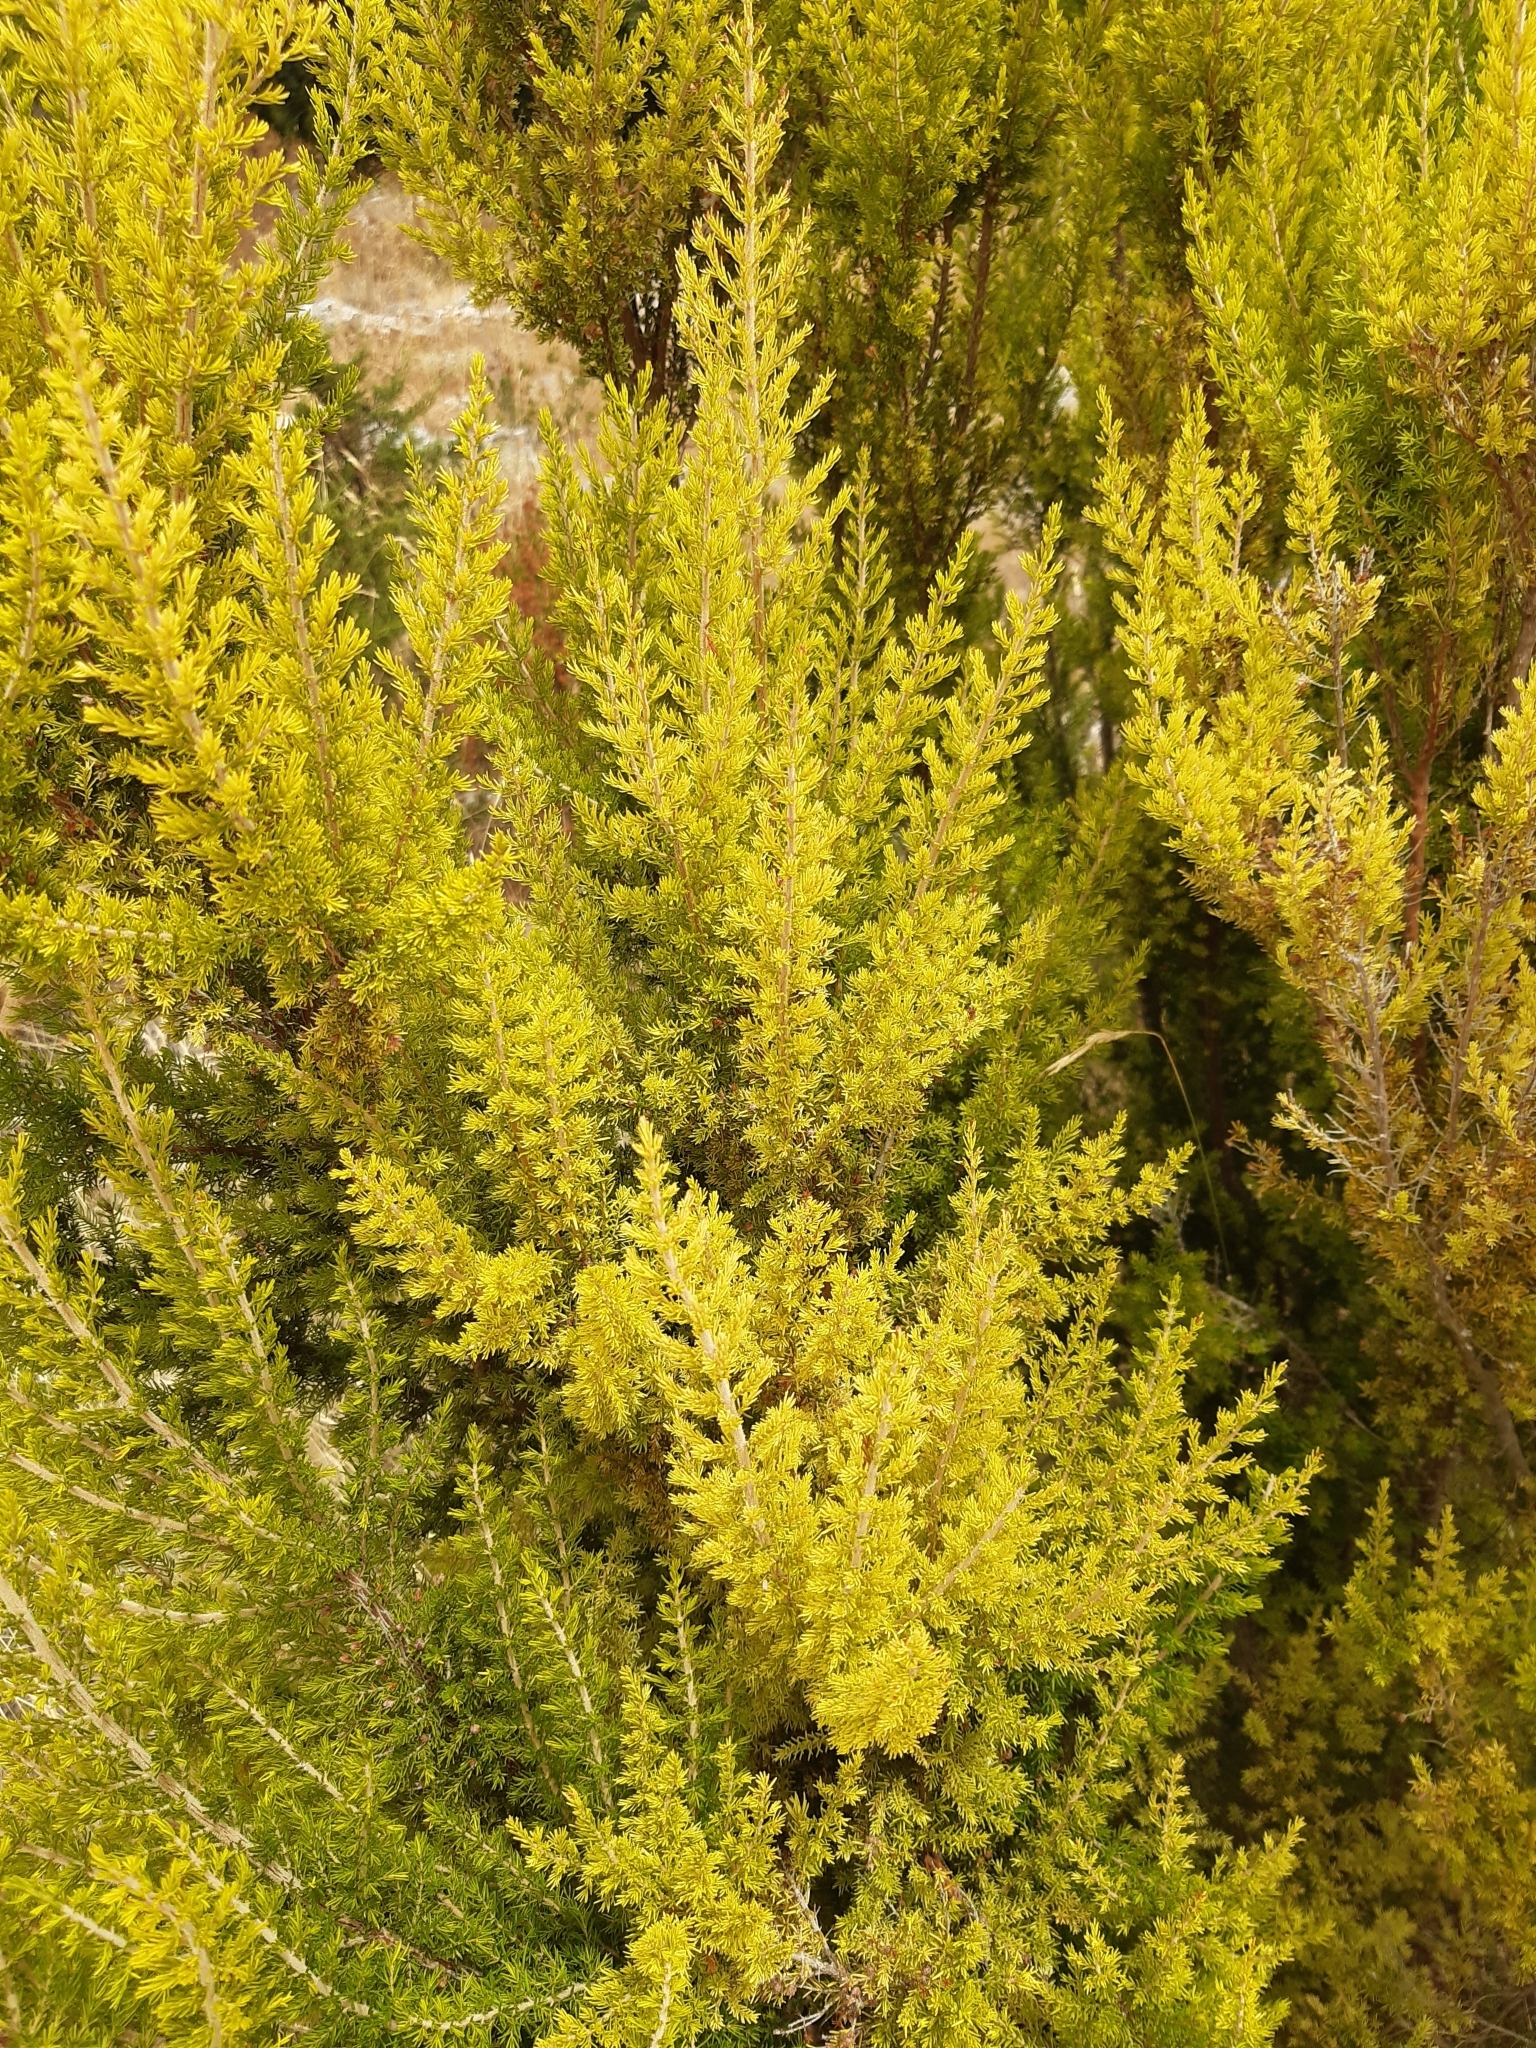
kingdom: Plantae
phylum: Tracheophyta
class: Magnoliopsida
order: Ericales
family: Ericaceae
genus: Erica
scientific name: Erica arborea
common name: Tree heath
